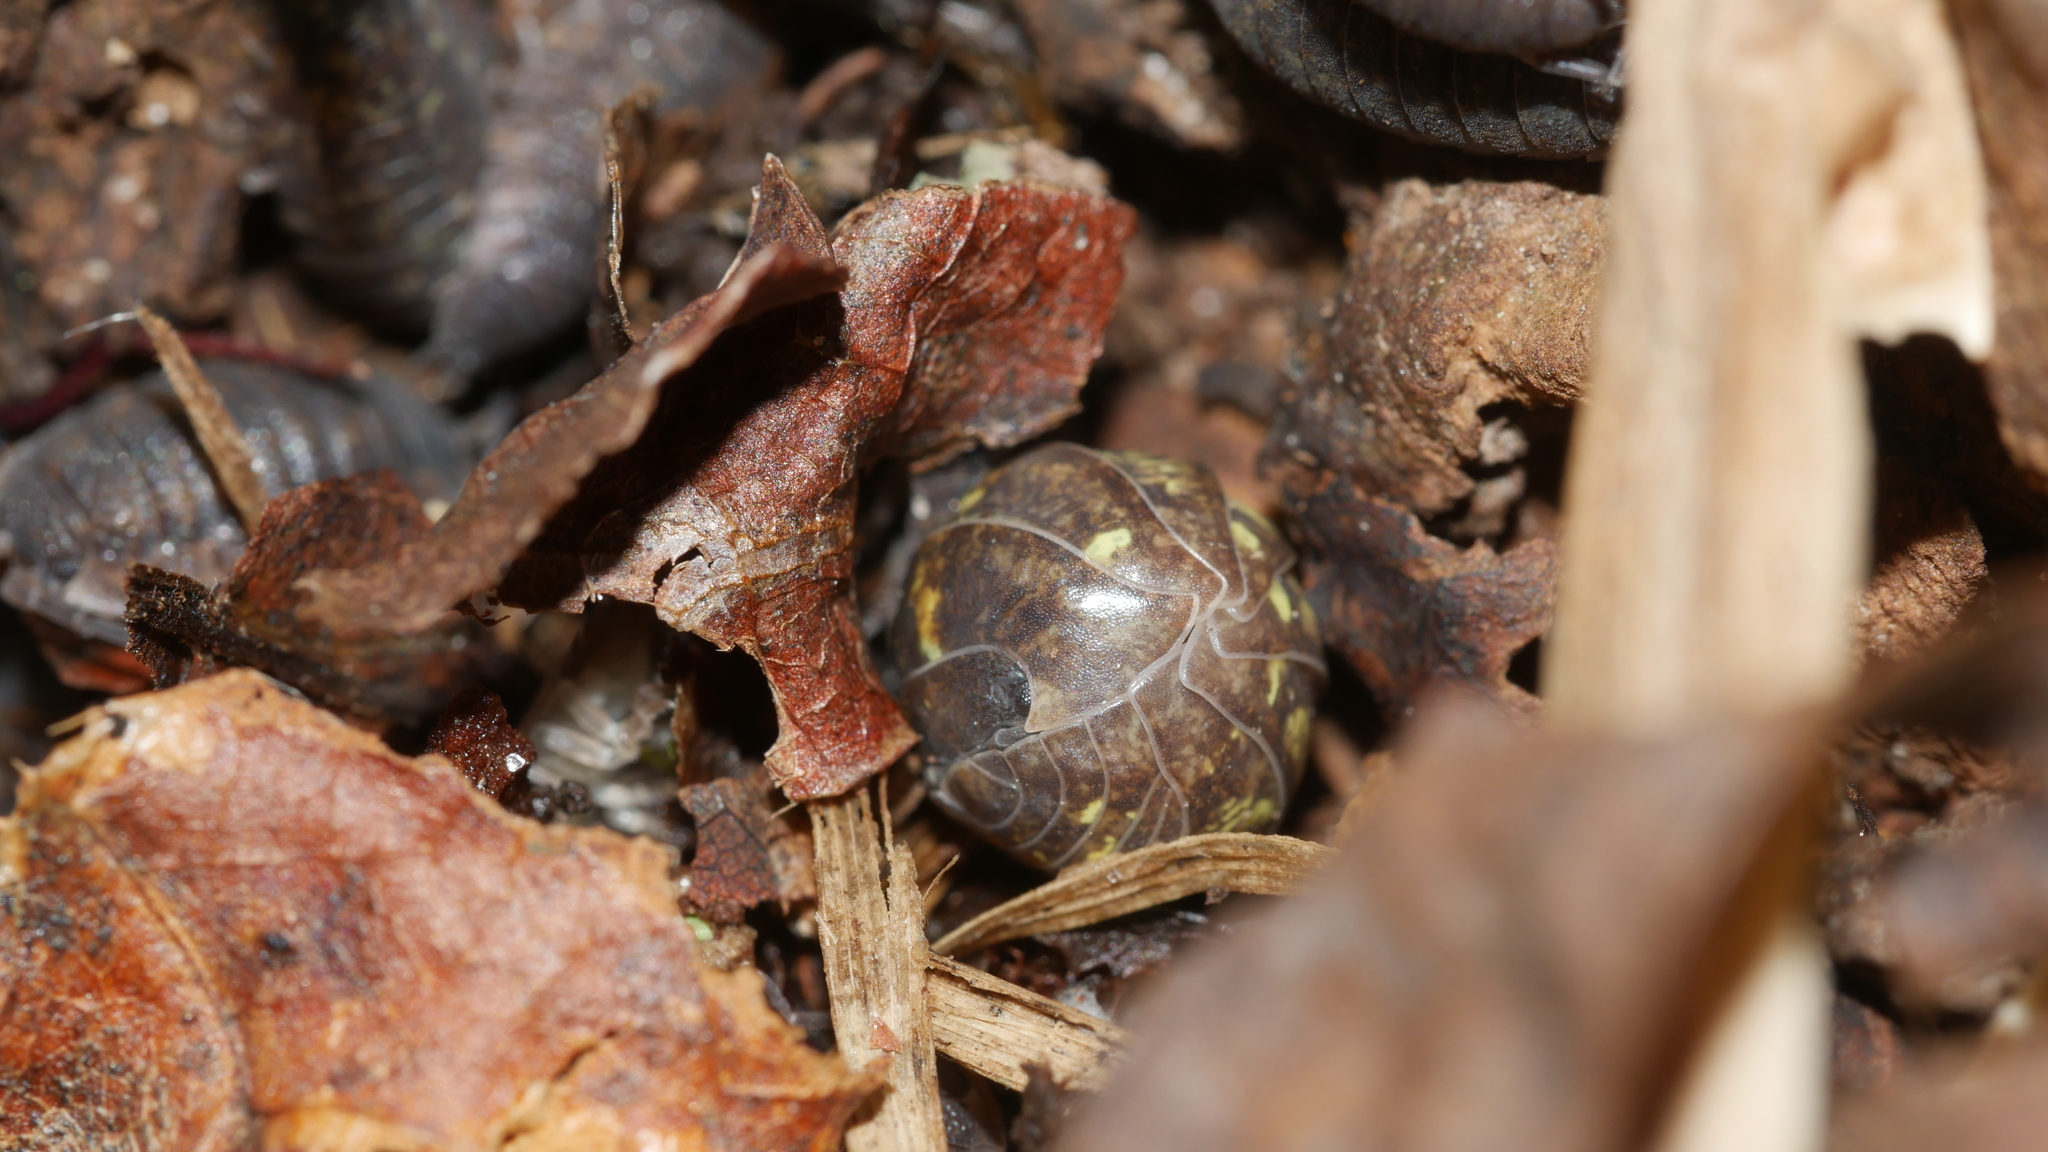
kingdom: Animalia
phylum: Arthropoda
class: Malacostraca
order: Isopoda
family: Armadillidiidae
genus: Armadillidium
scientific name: Armadillidium vulgare
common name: Common pill woodlouse
